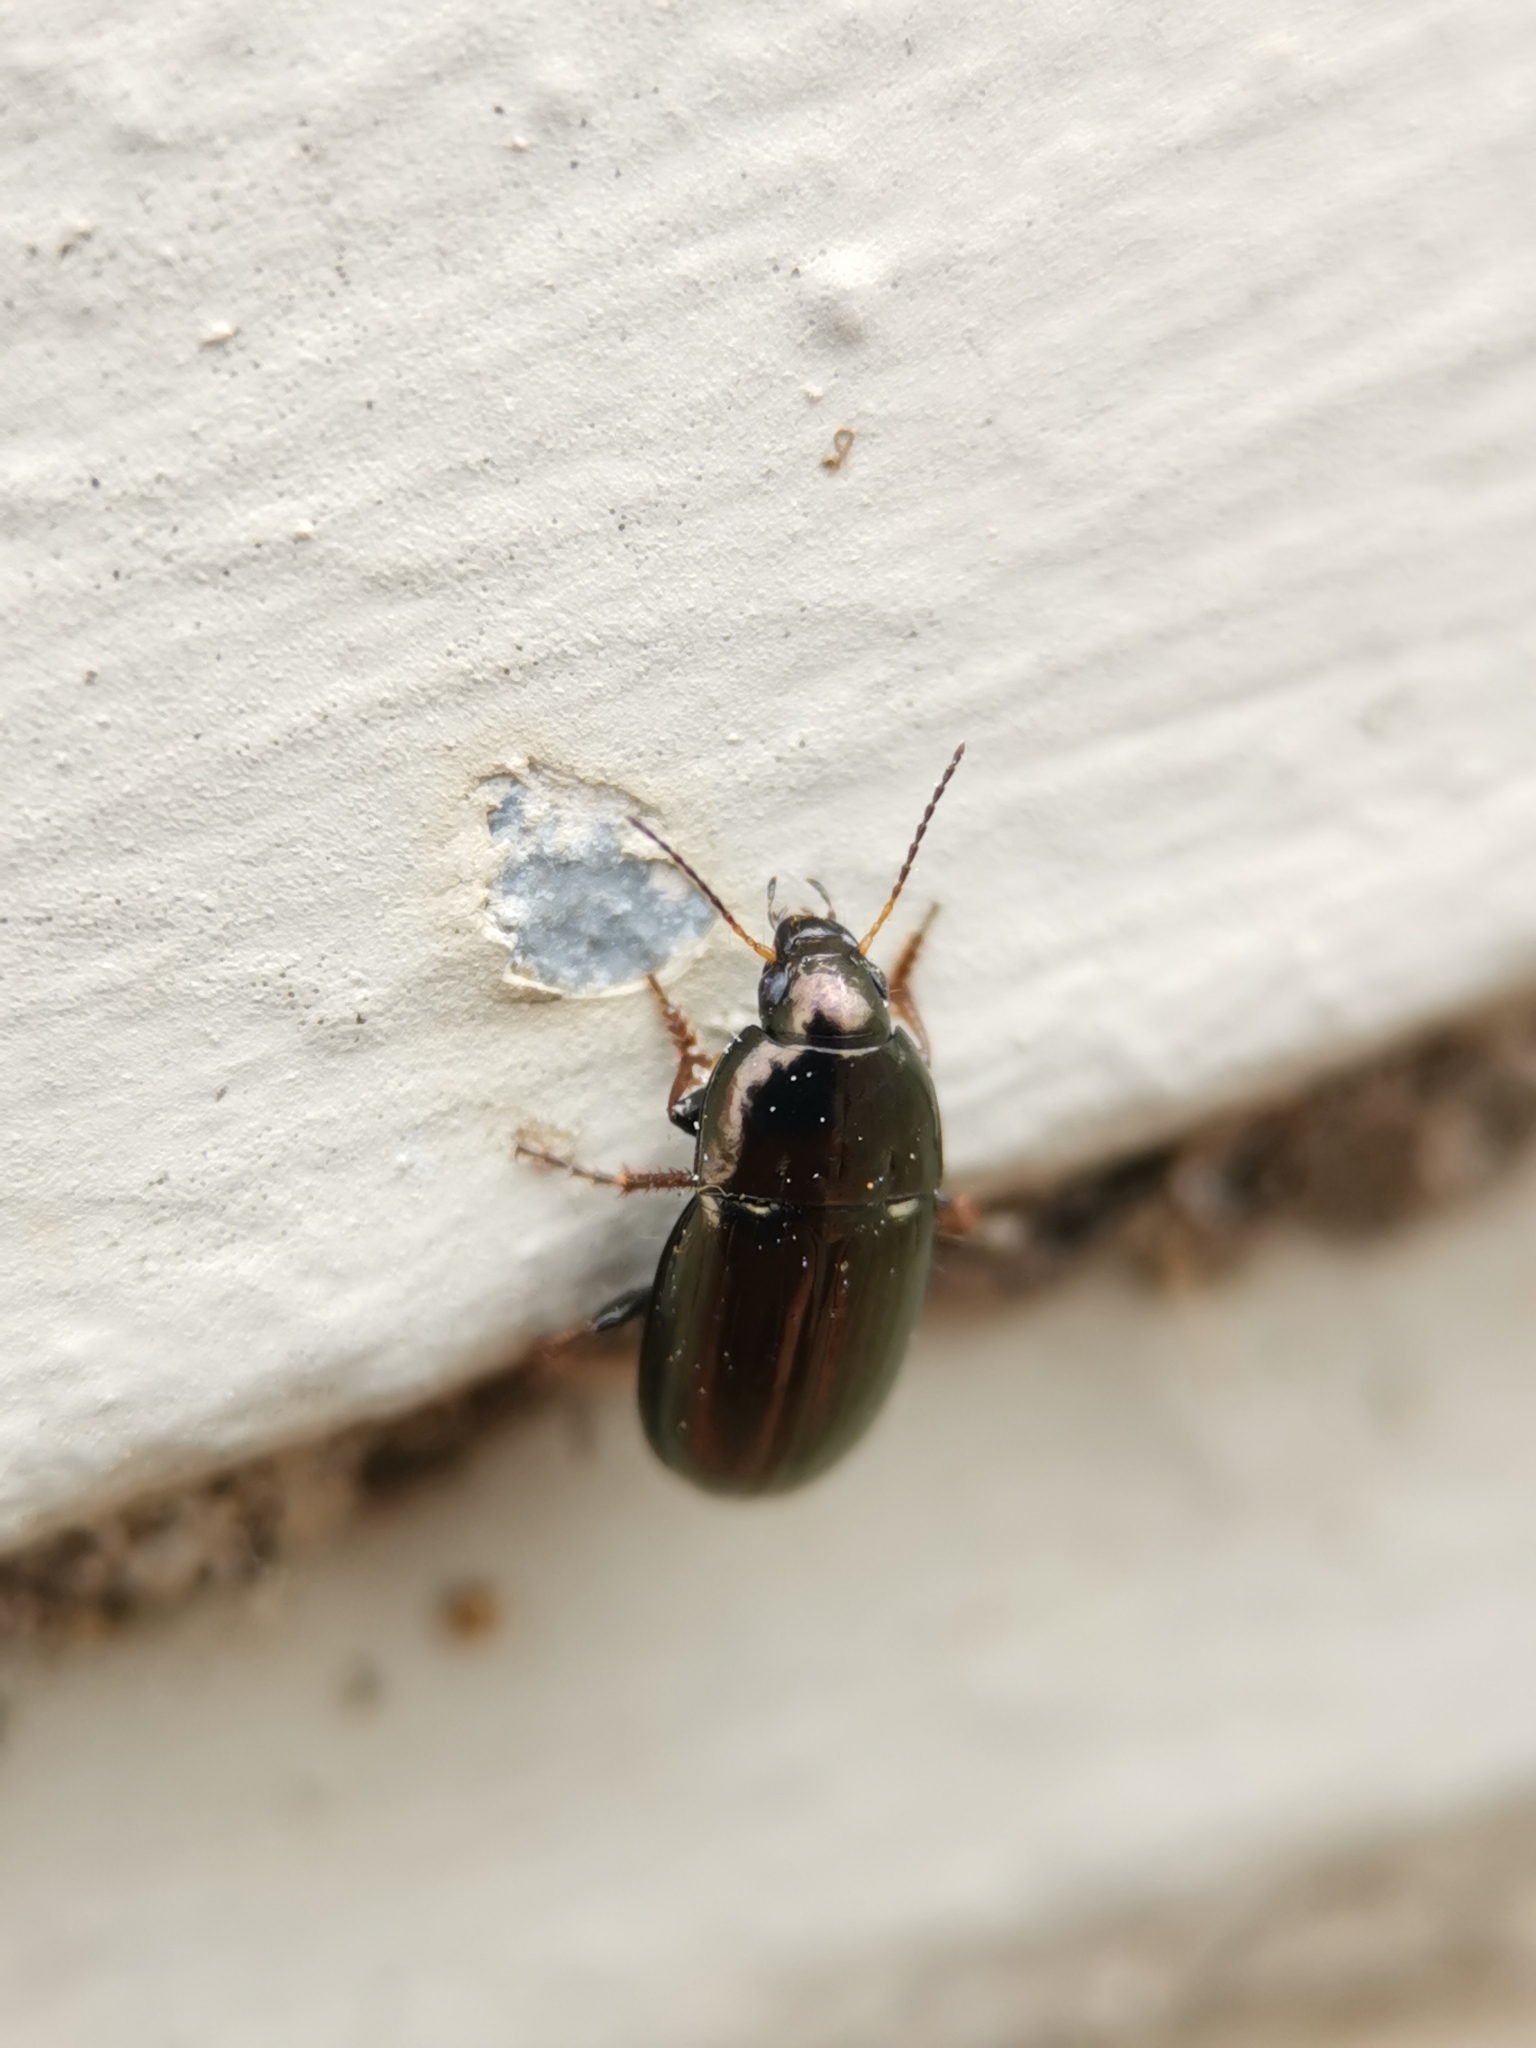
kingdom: Animalia
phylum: Arthropoda
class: Insecta
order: Coleoptera
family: Carabidae
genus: Amara
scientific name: Amara aenea
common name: Common sun beetle
